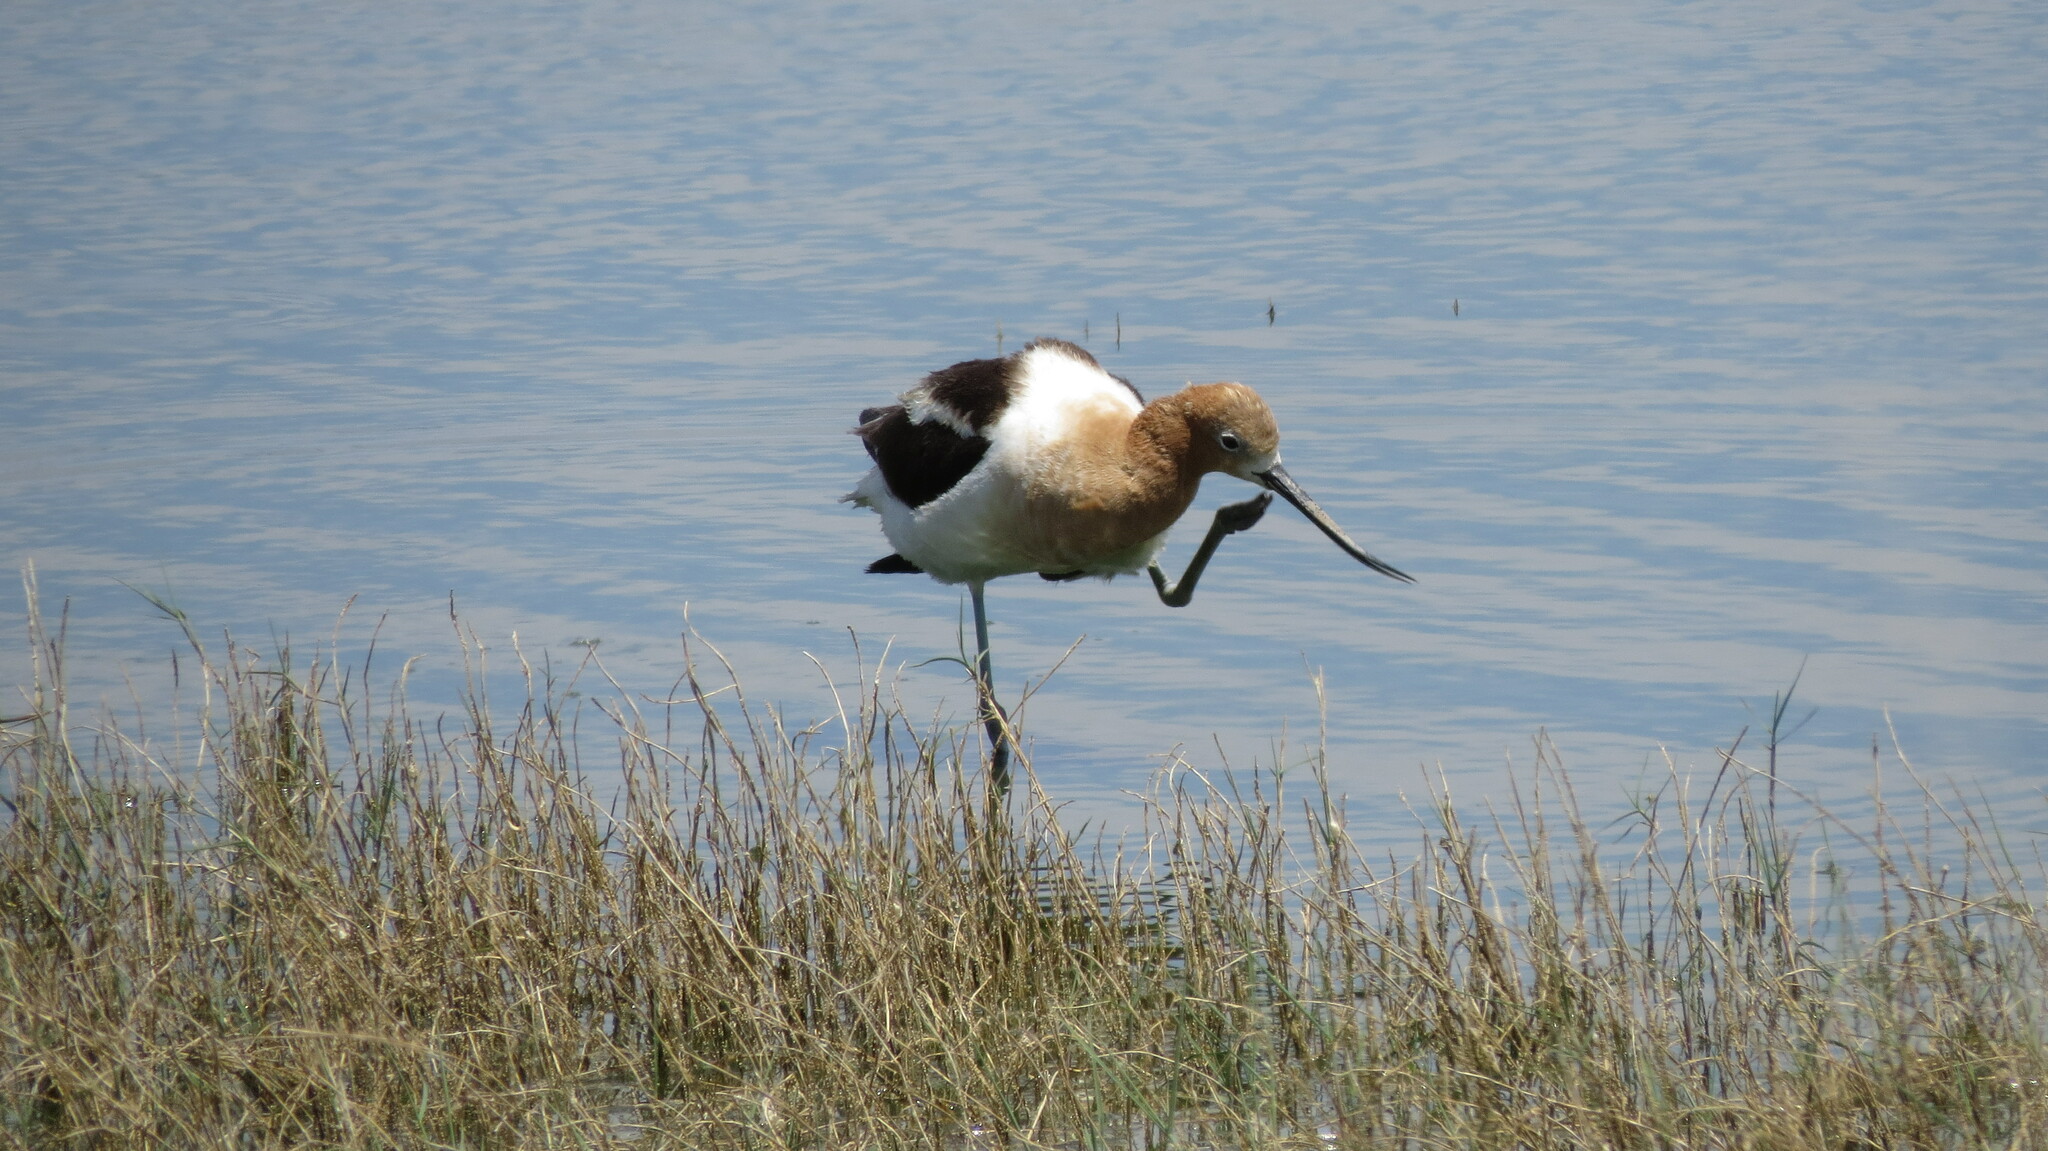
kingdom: Animalia
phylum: Chordata
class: Aves
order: Charadriiformes
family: Recurvirostridae
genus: Recurvirostra
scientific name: Recurvirostra americana
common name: American avocet
